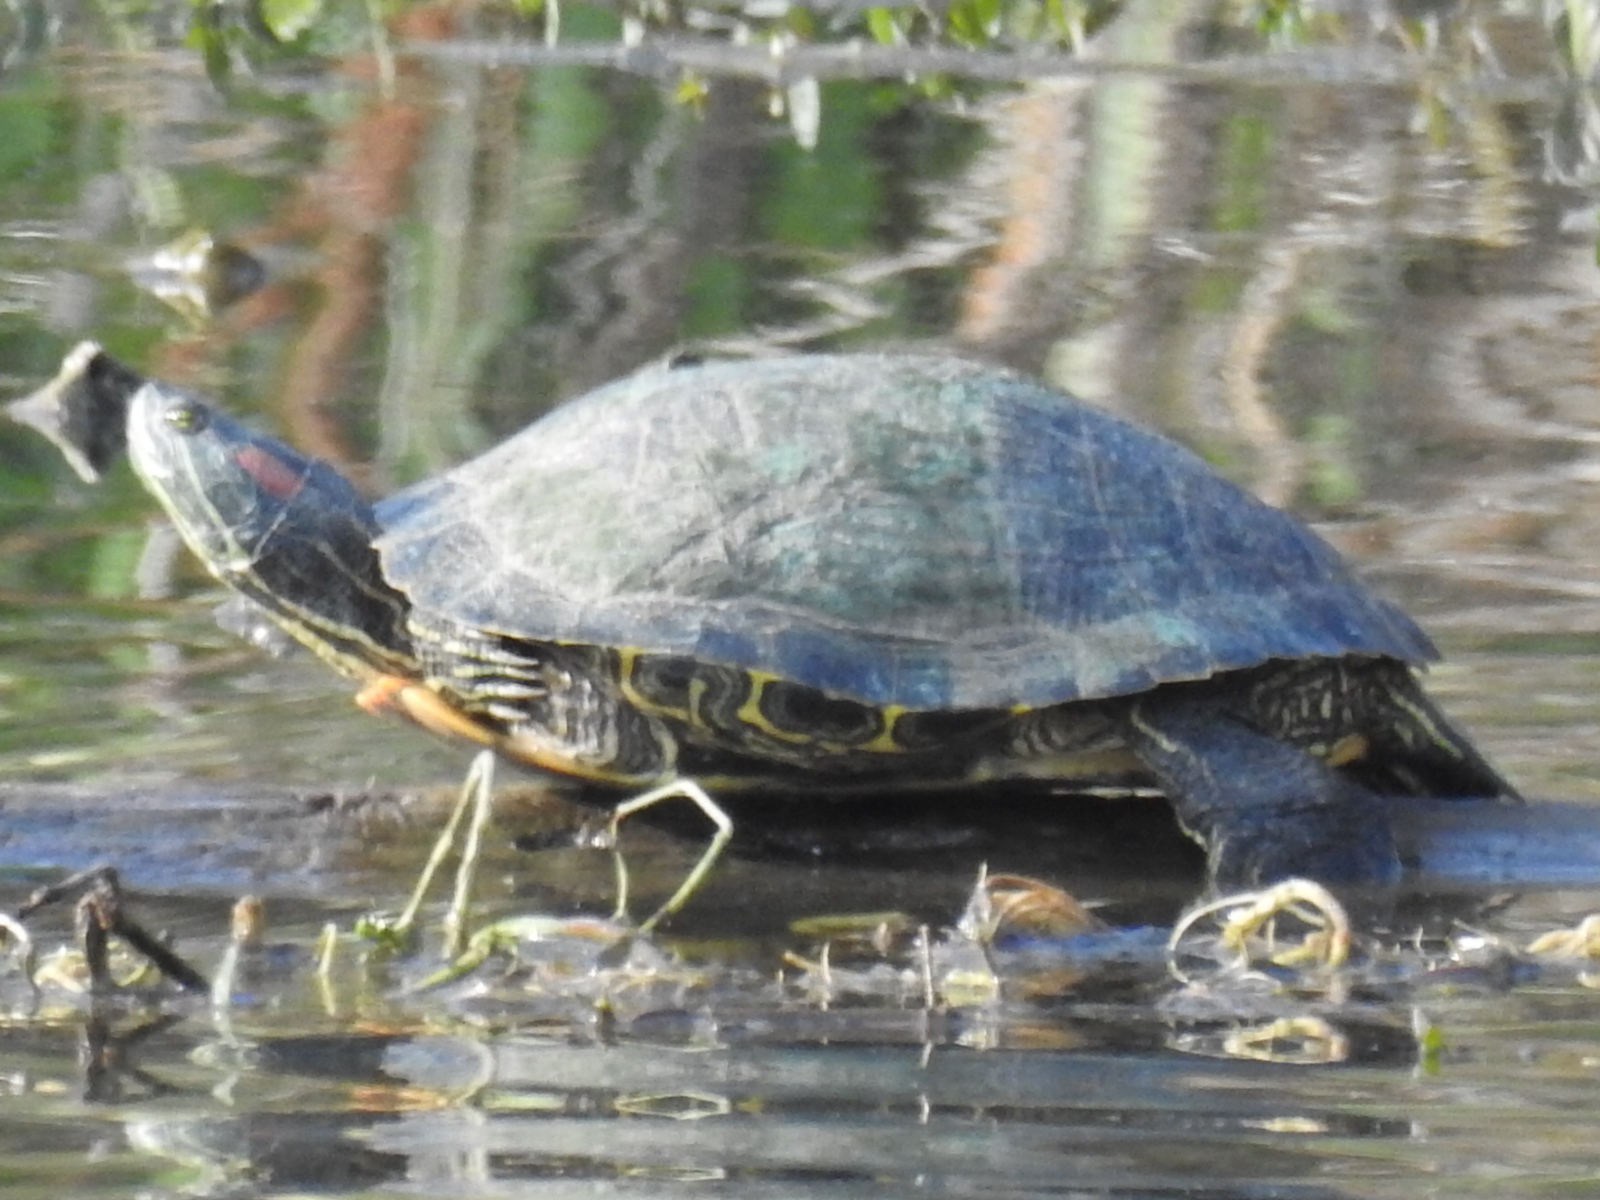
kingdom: Animalia
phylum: Chordata
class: Testudines
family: Emydidae
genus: Trachemys
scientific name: Trachemys scripta
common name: Slider
